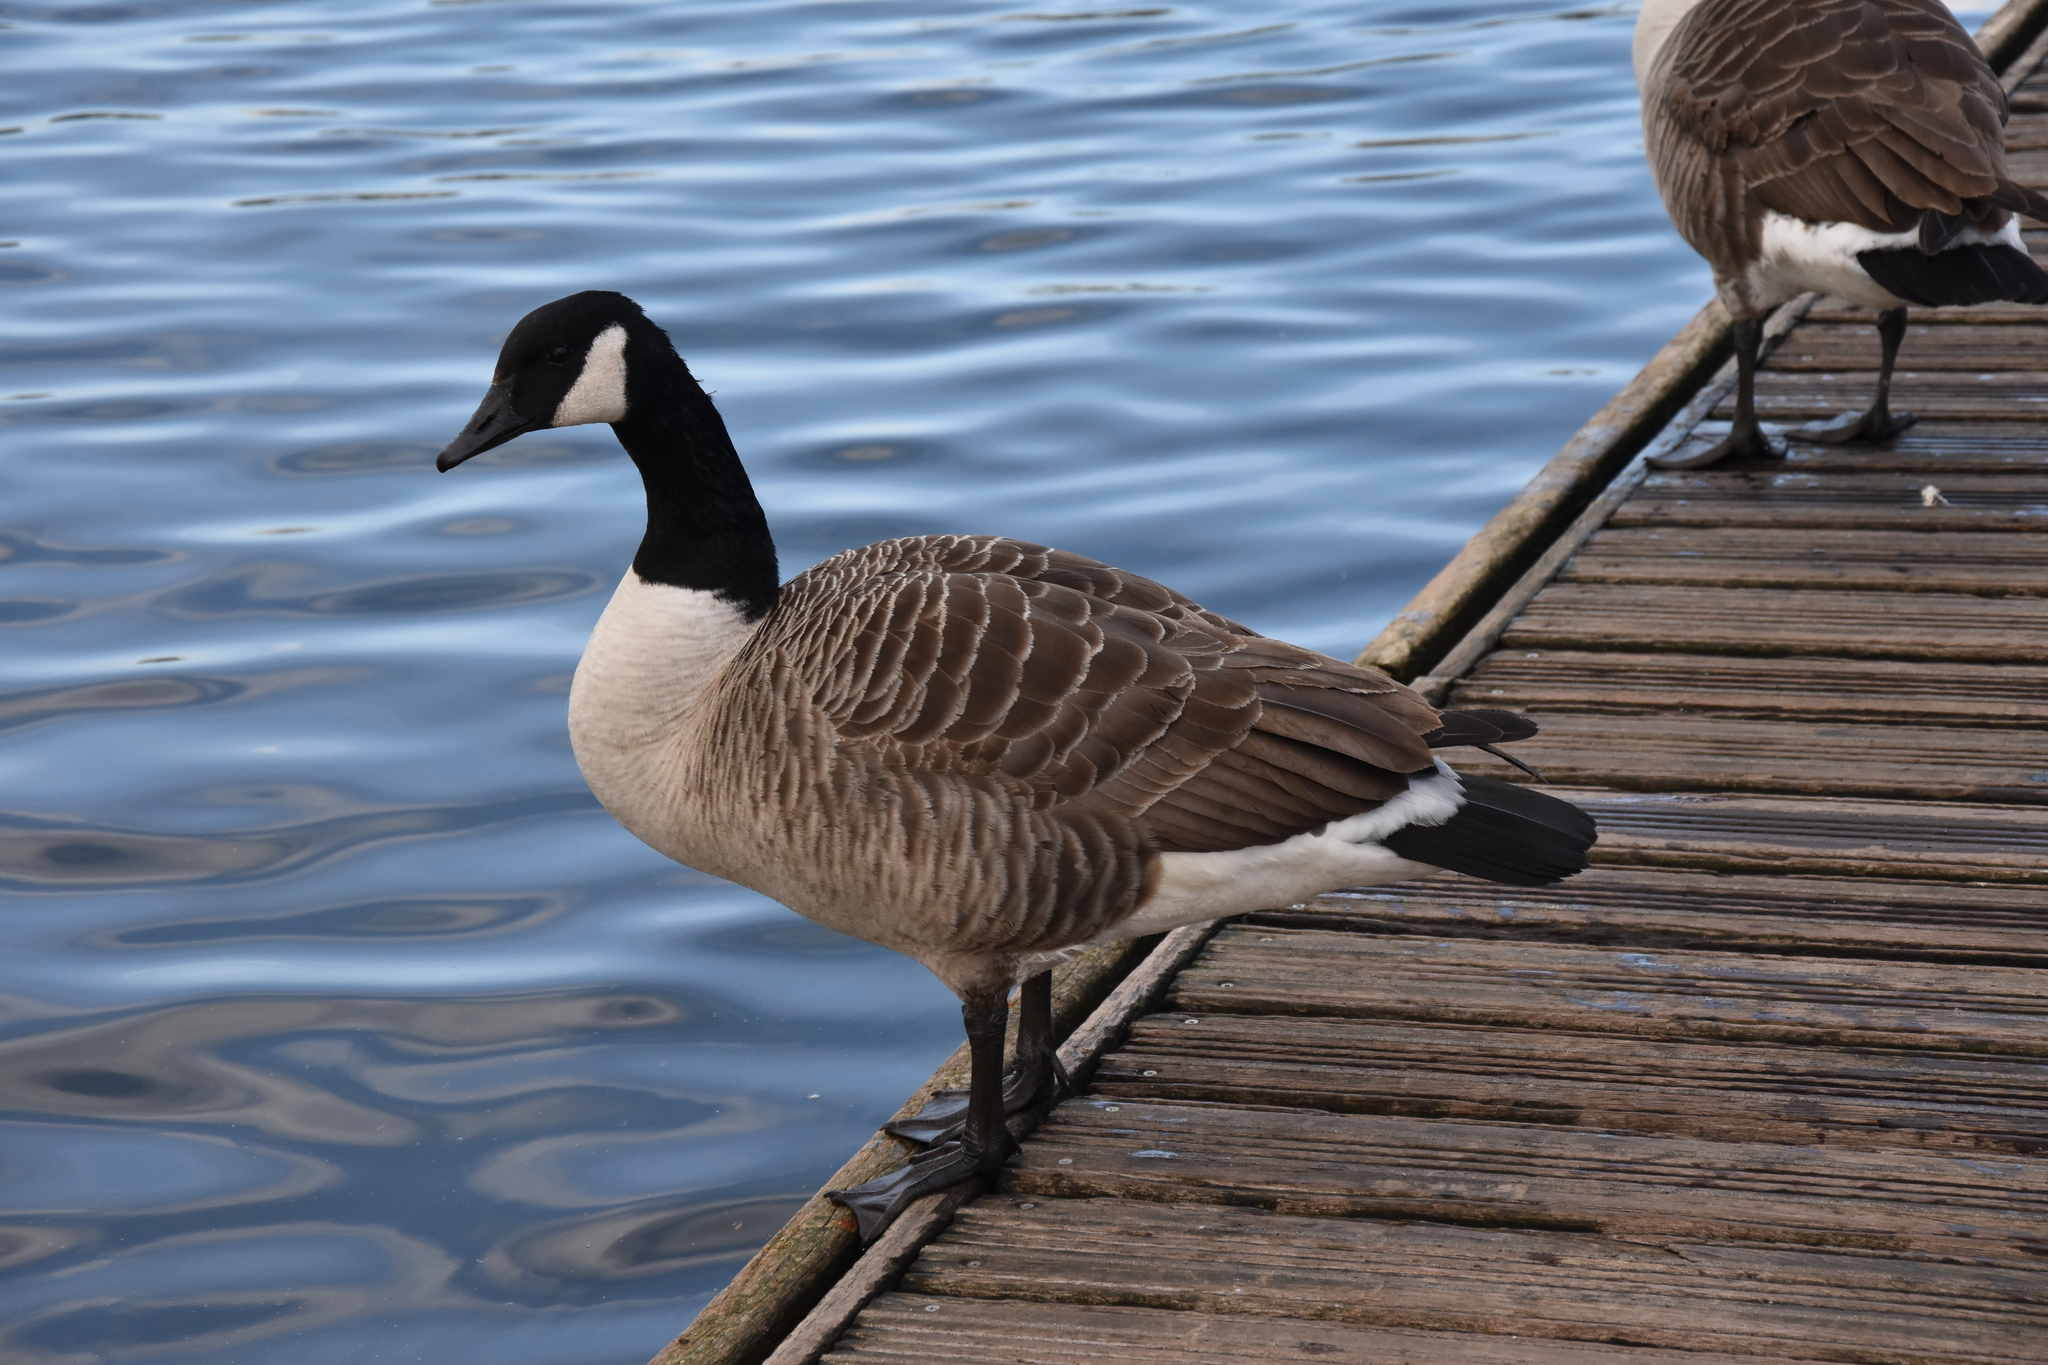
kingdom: Animalia
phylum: Chordata
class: Aves
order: Anseriformes
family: Anatidae
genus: Branta
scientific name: Branta canadensis
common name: Canada goose
